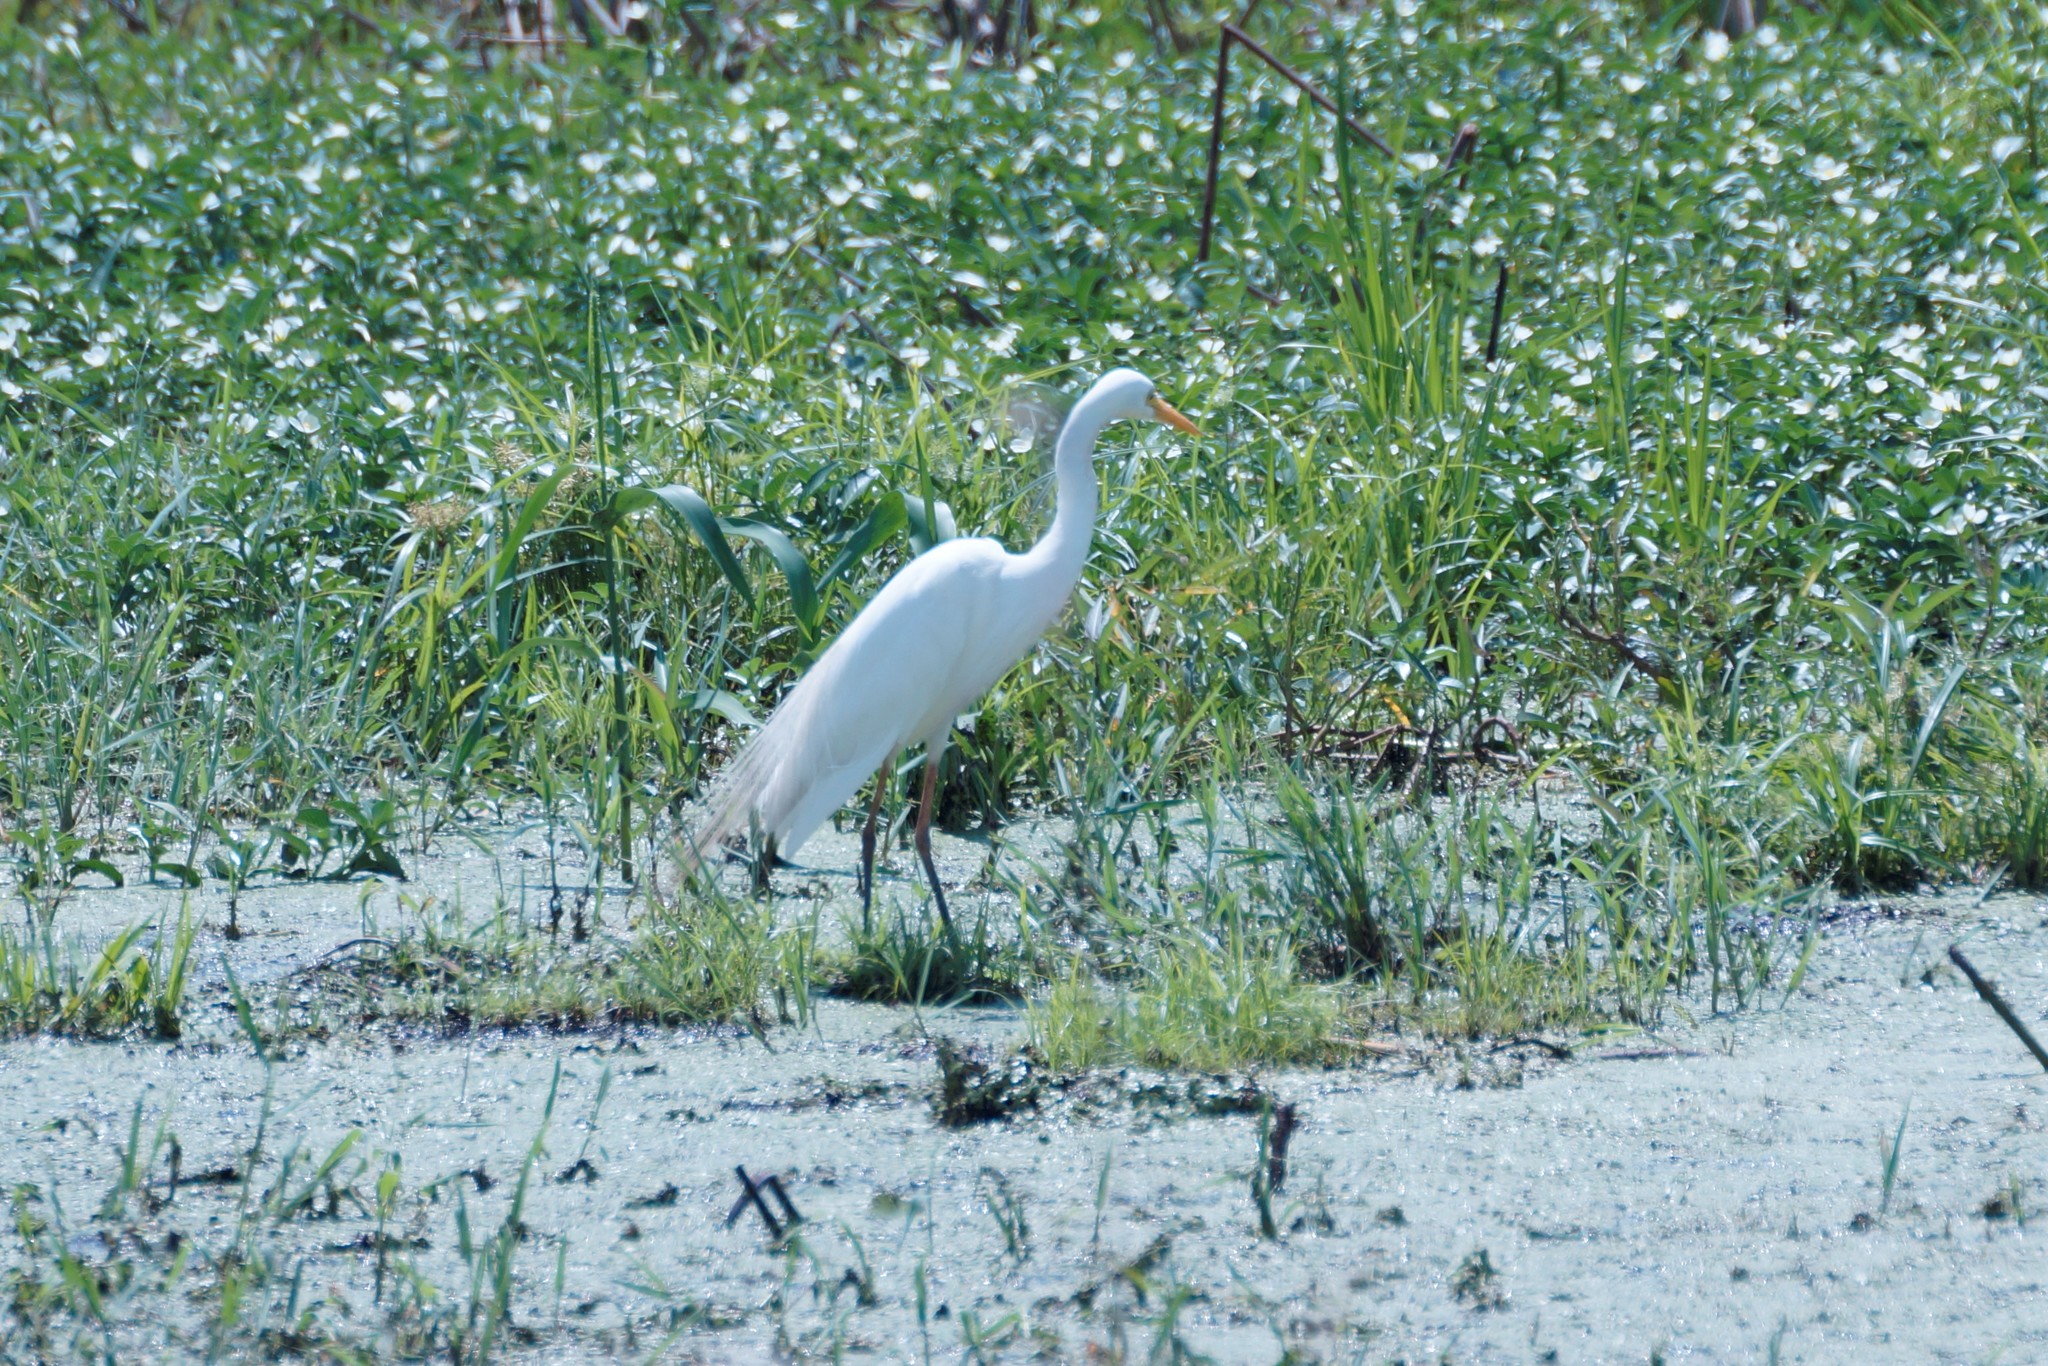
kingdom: Animalia
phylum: Chordata
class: Aves
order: Pelecaniformes
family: Ardeidae
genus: Egretta
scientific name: Egretta intermedia
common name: Intermediate egret
